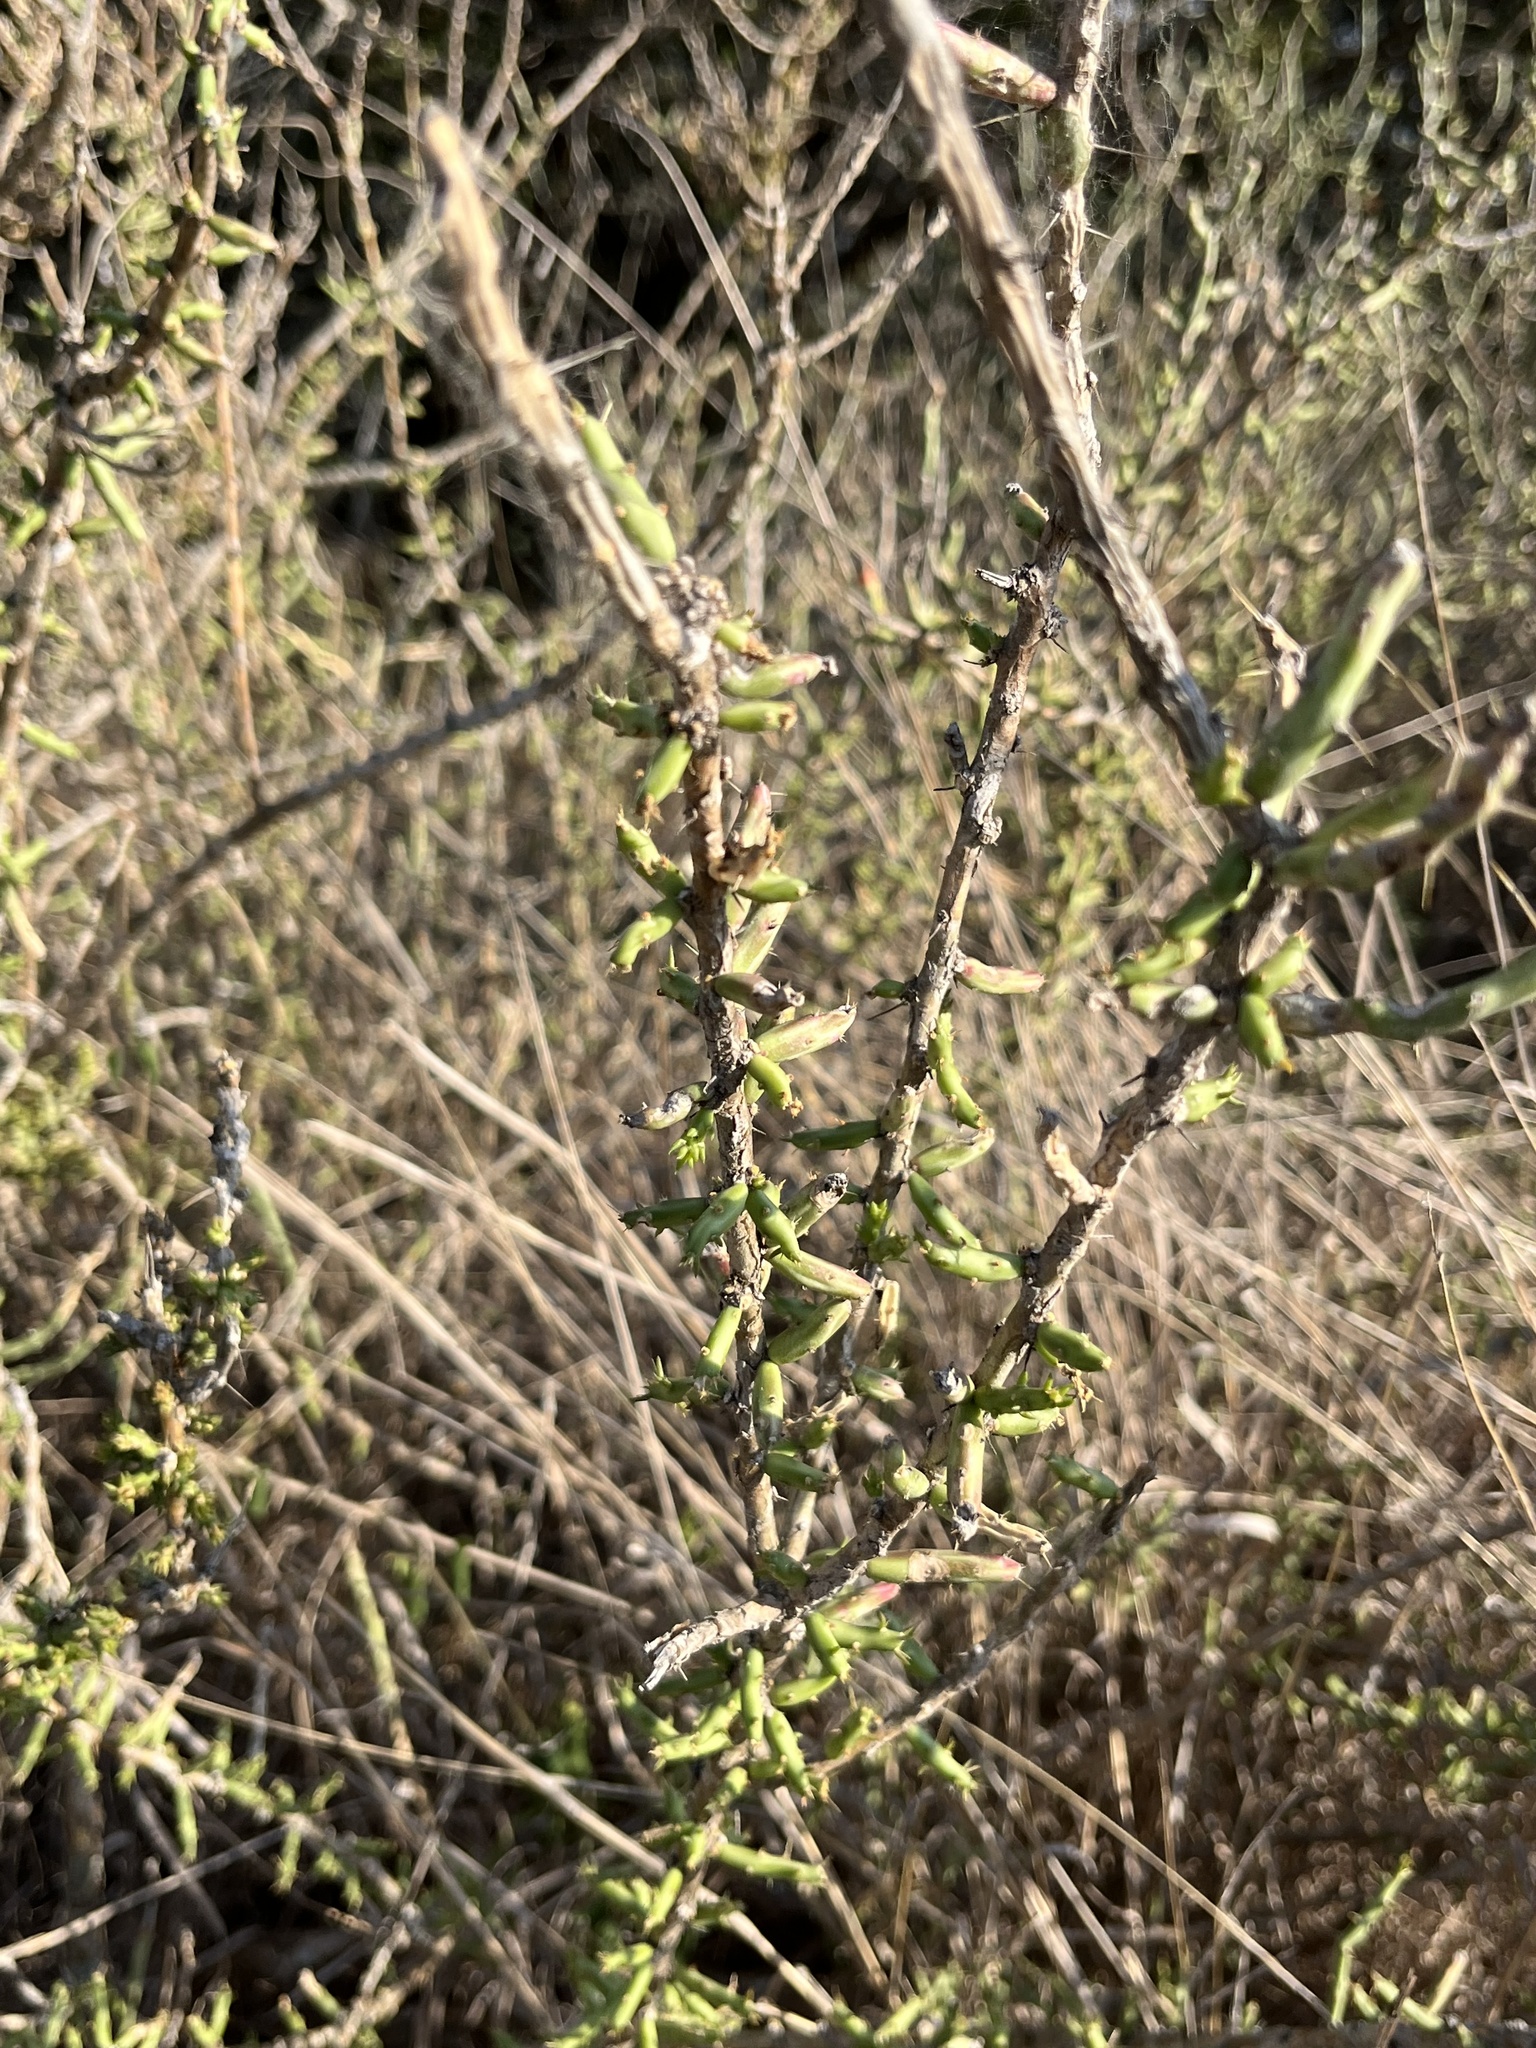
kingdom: Plantae
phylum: Tracheophyta
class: Magnoliopsida
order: Caryophyllales
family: Cactaceae
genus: Cylindropuntia
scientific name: Cylindropuntia leptocaulis
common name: Christmas cactus
